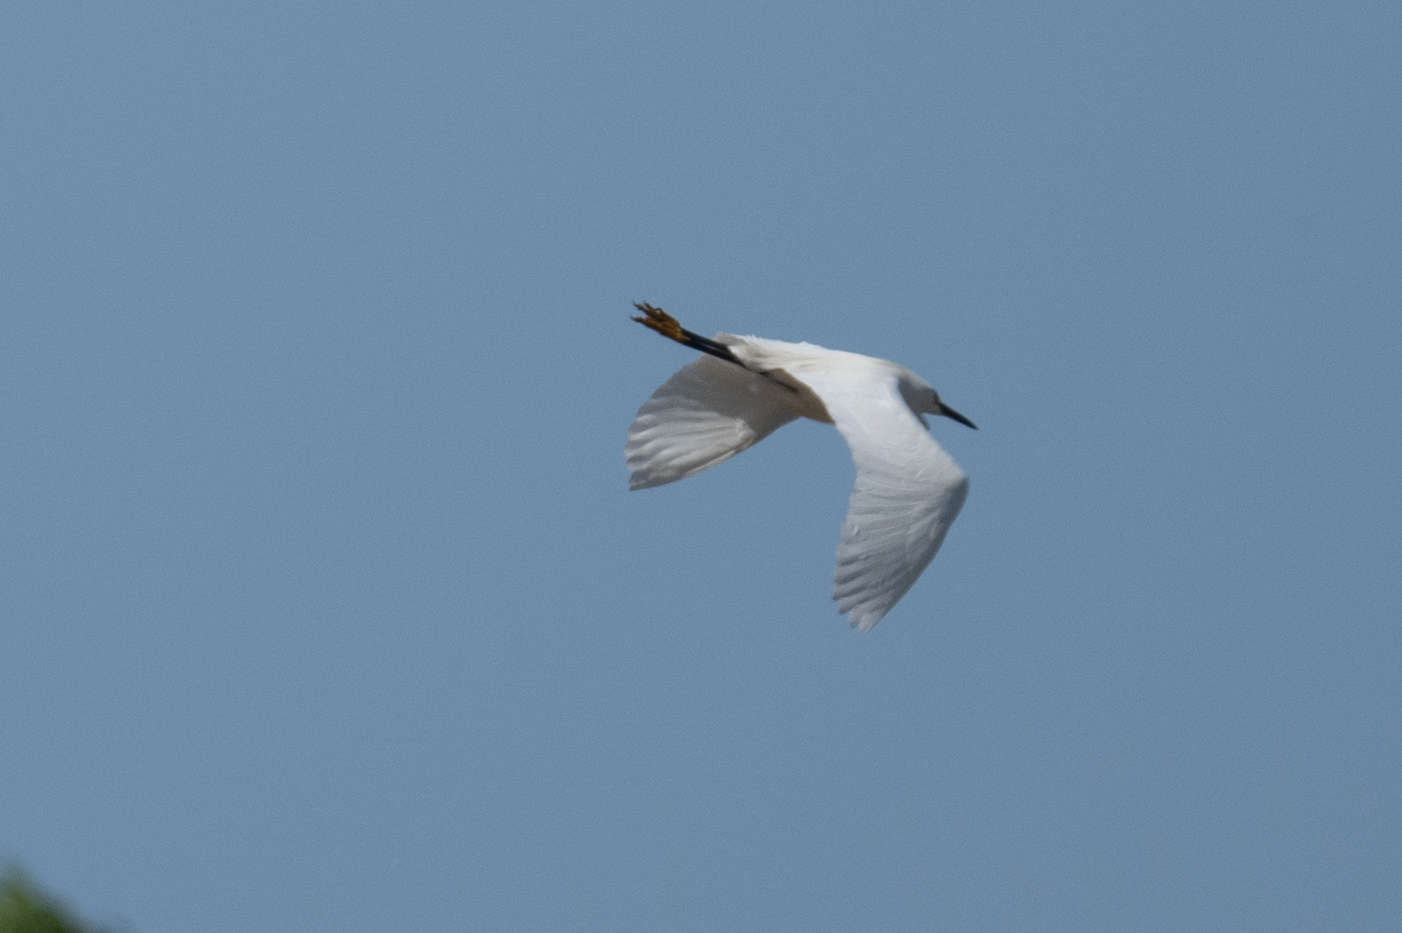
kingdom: Animalia
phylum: Chordata
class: Aves
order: Pelecaniformes
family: Ardeidae
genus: Egretta
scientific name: Egretta thula
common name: Snowy egret
